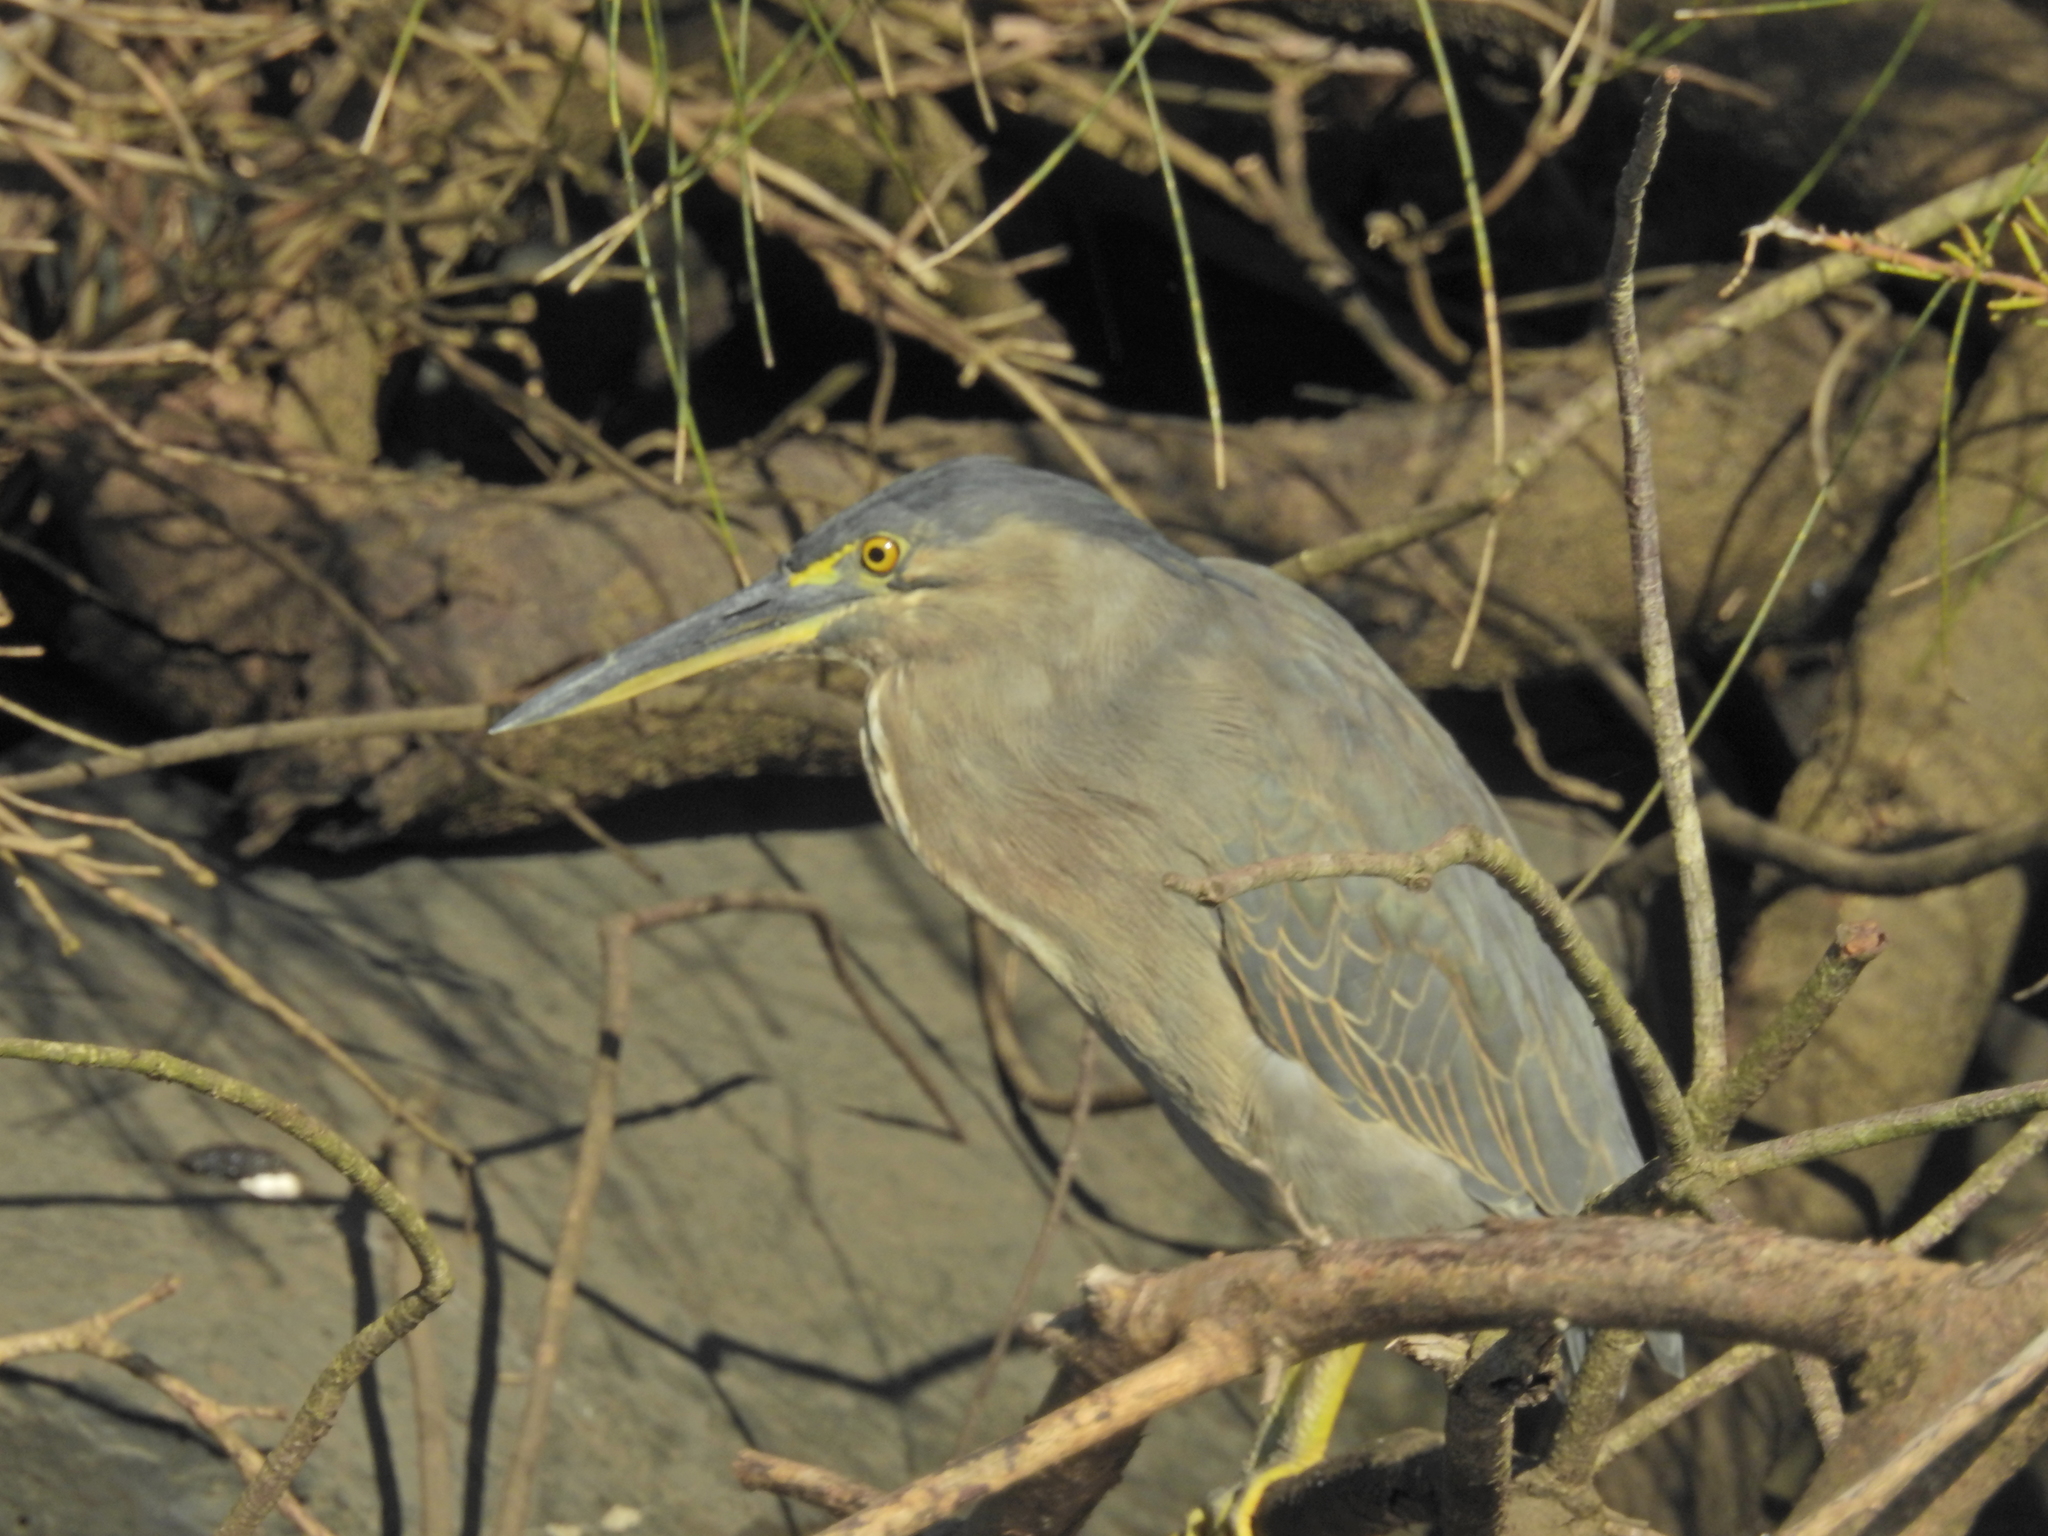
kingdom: Animalia
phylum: Chordata
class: Aves
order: Pelecaniformes
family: Ardeidae
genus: Butorides
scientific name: Butorides striata
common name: Striated heron
